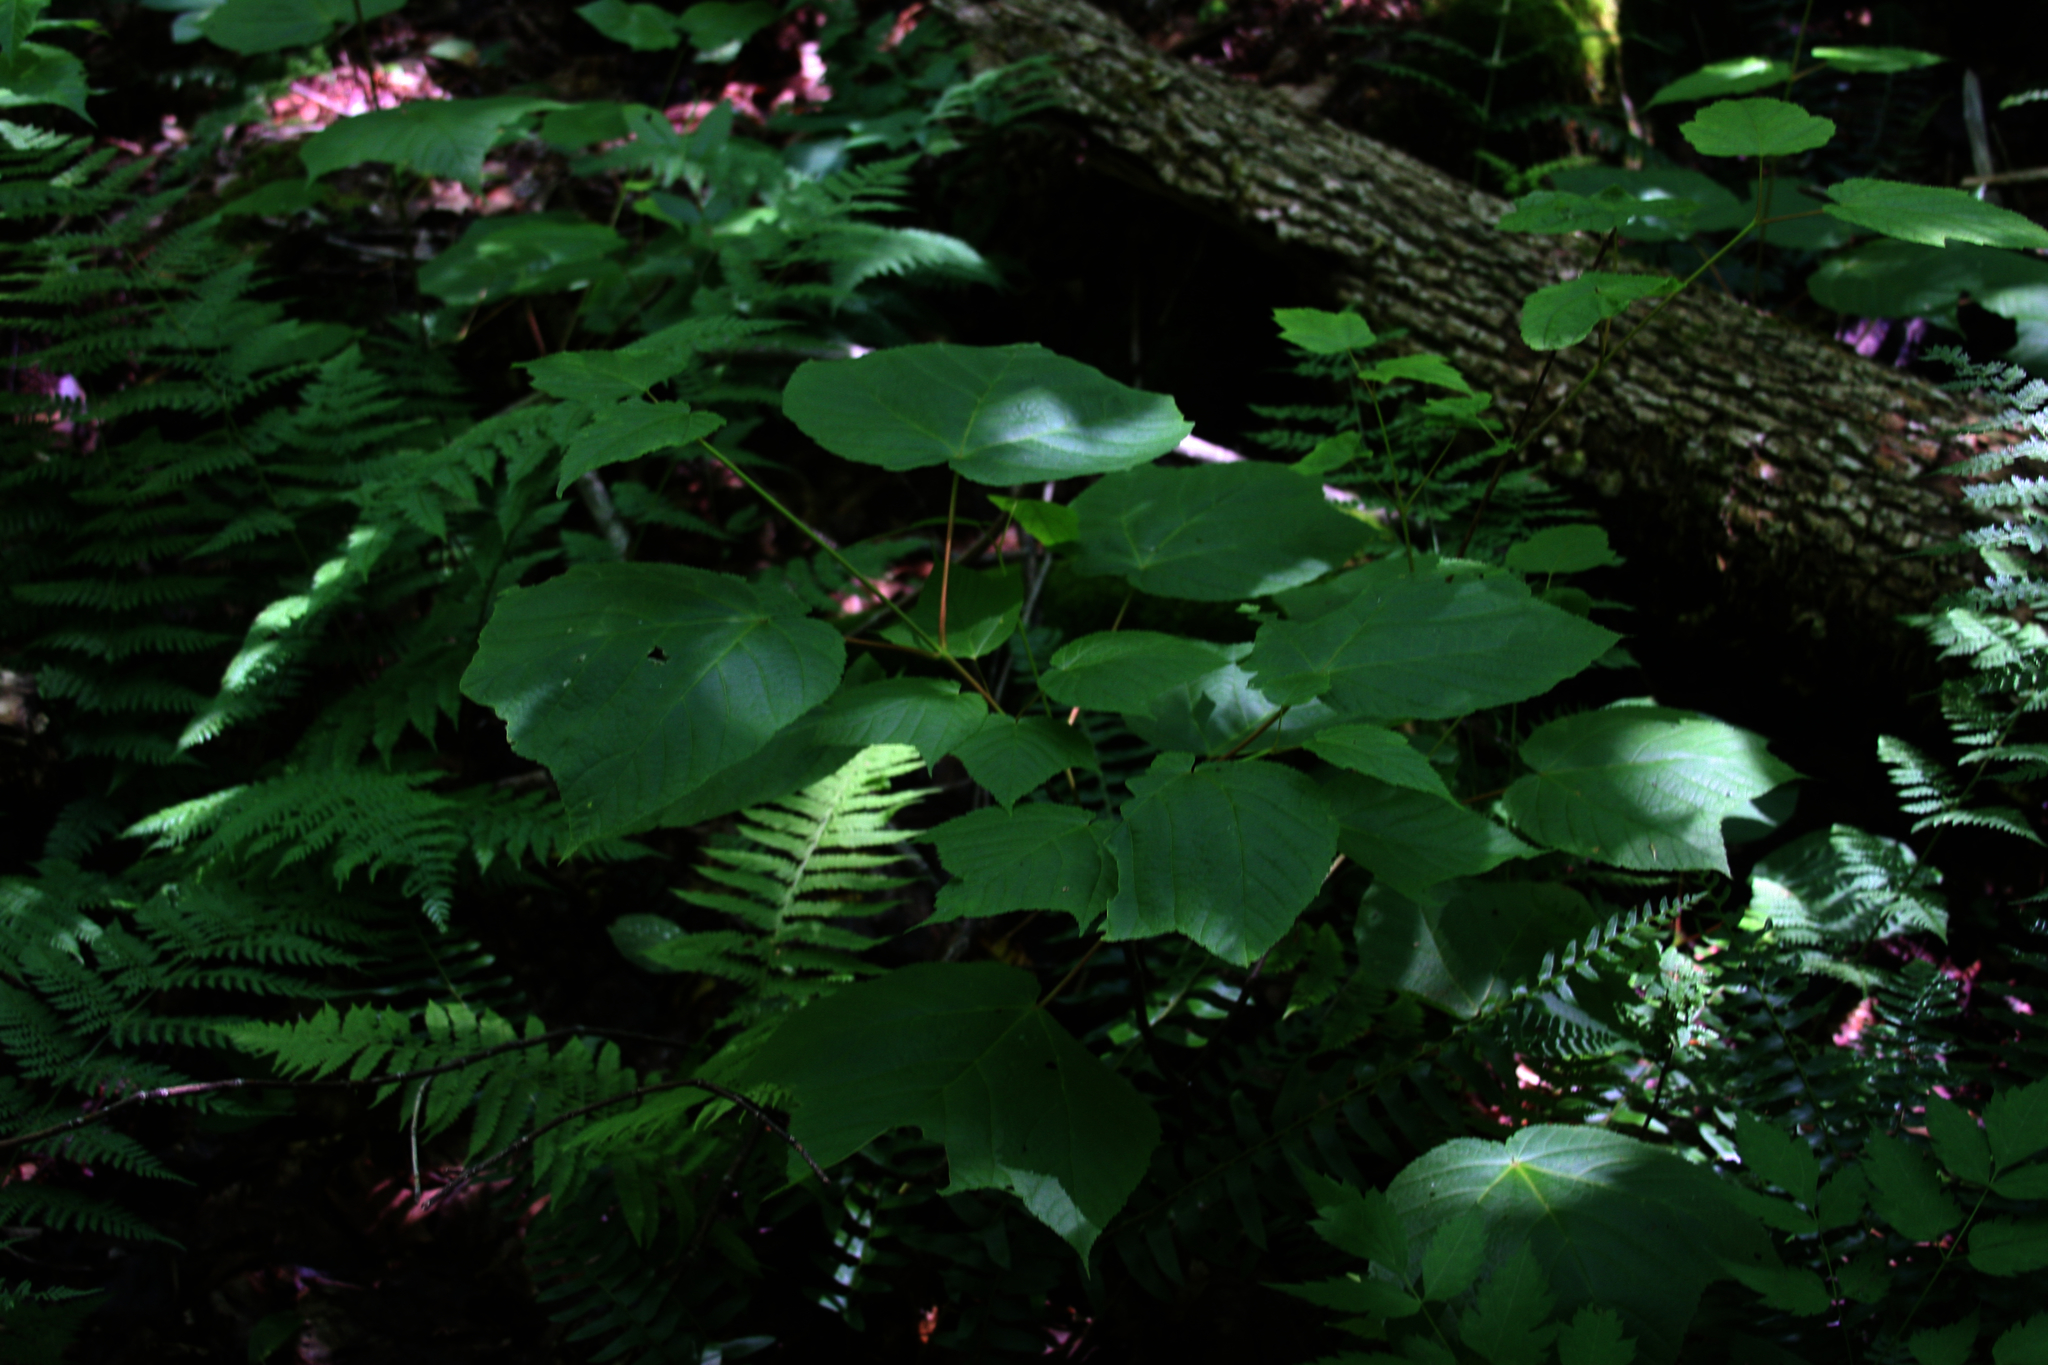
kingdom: Plantae
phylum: Tracheophyta
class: Magnoliopsida
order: Sapindales
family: Sapindaceae
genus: Acer
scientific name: Acer pensylvanicum
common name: Moosewood
